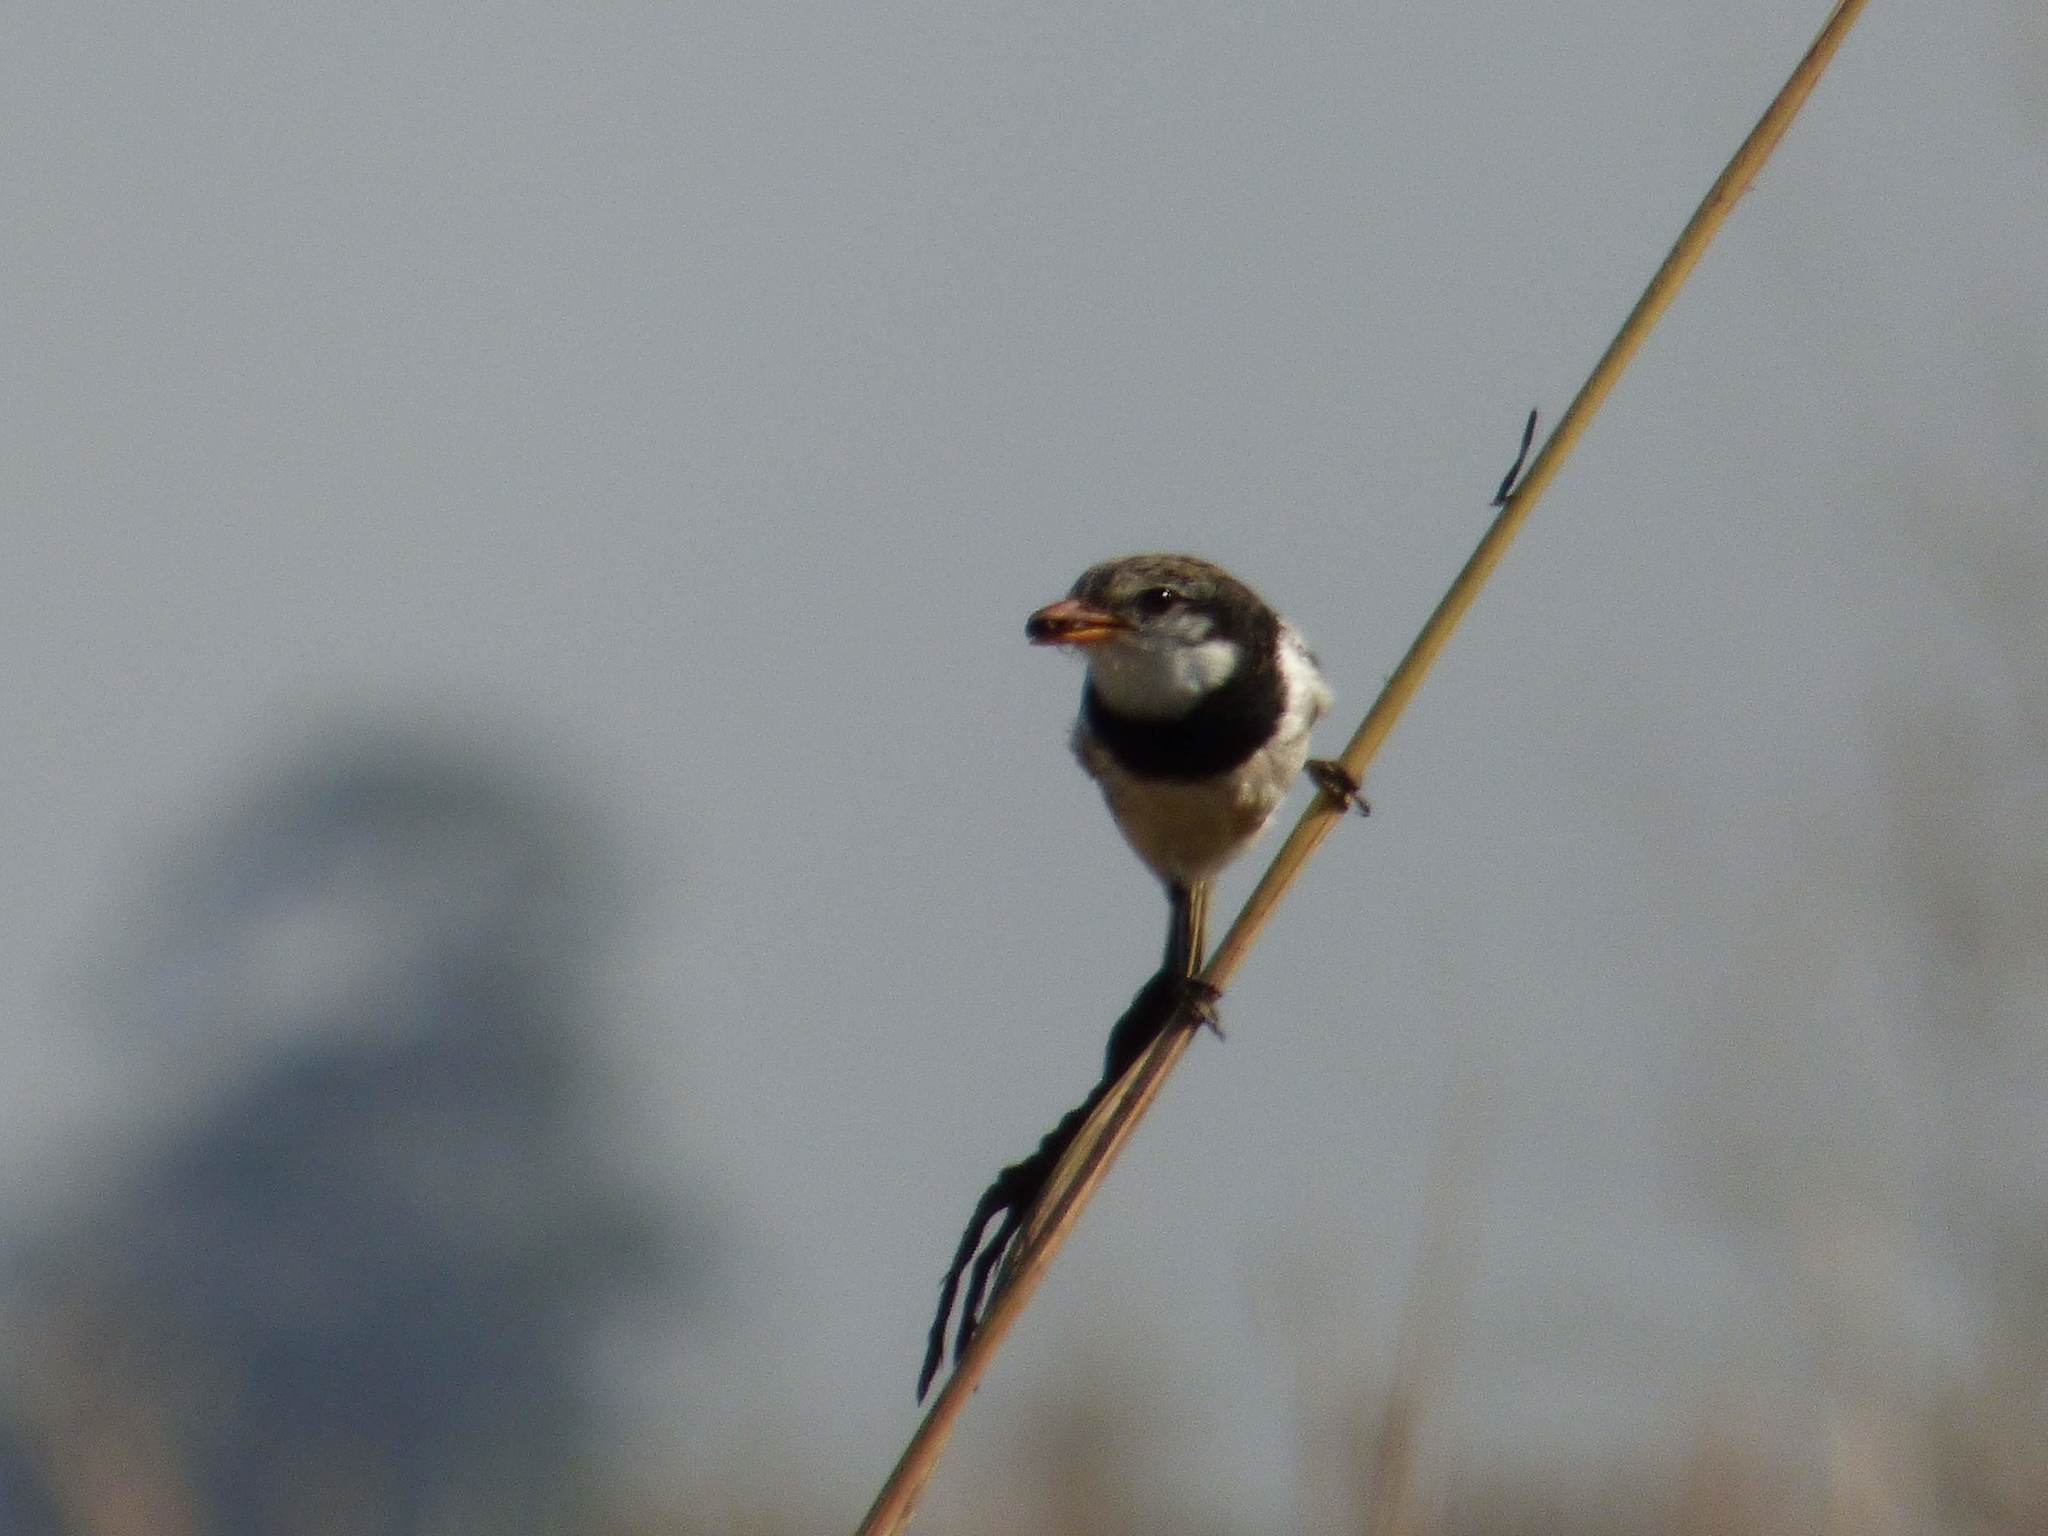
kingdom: Animalia
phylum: Chordata
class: Aves
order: Passeriformes
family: Tyrannidae
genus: Alectrurus
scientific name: Alectrurus risora
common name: Strange-tailed tyrant
